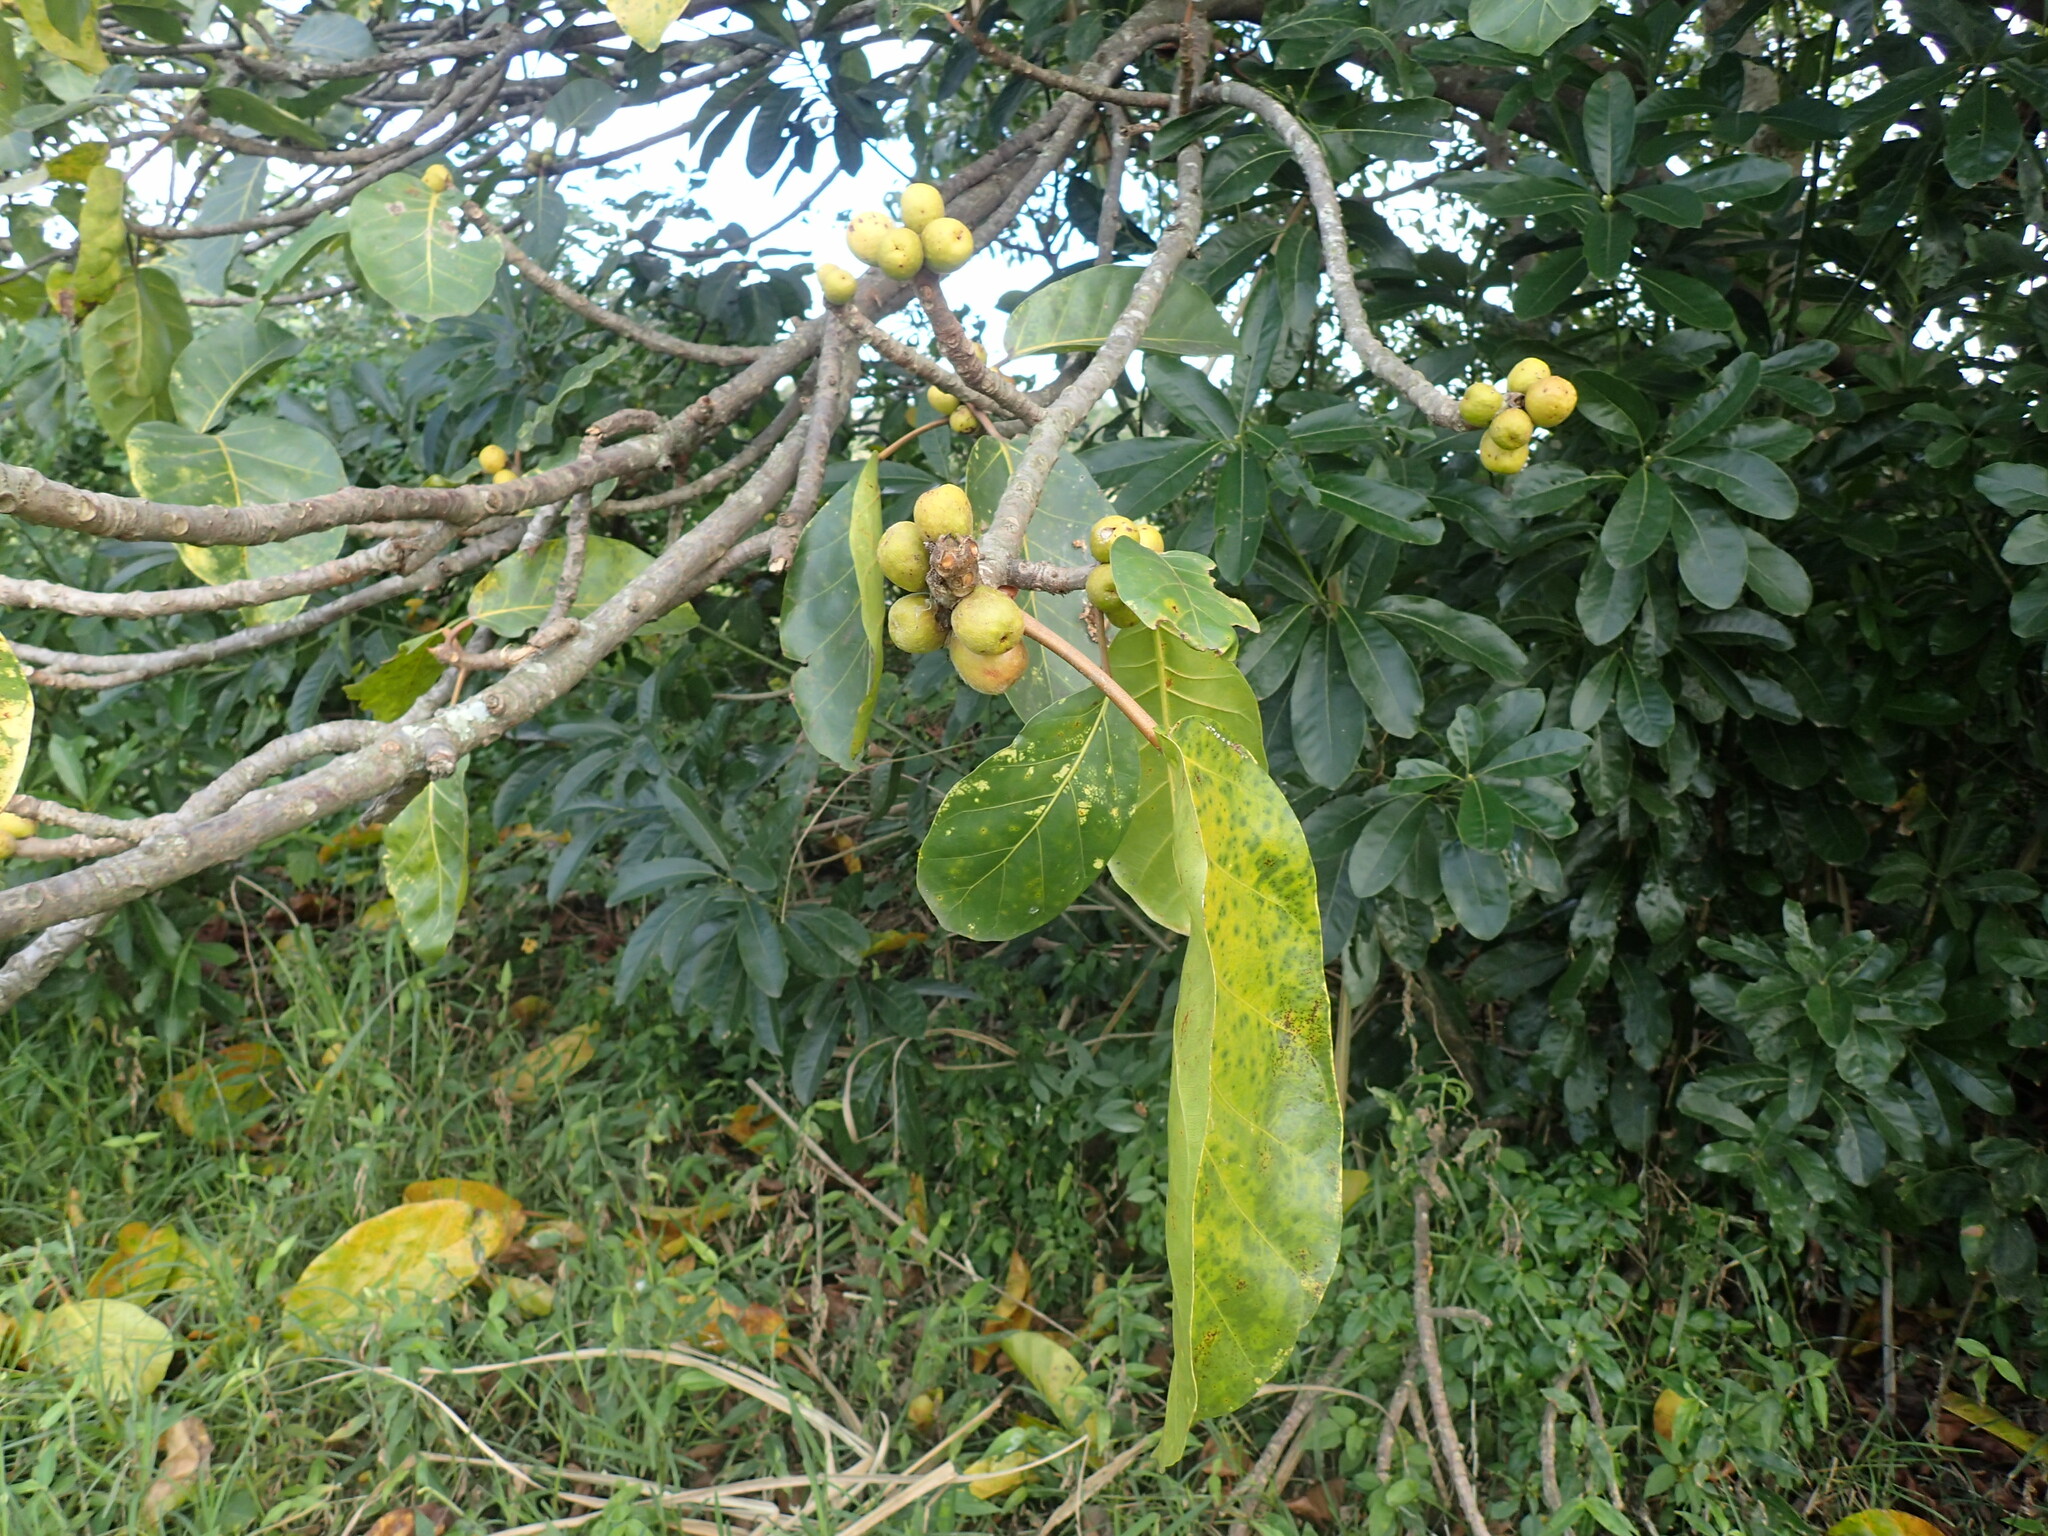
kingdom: Plantae
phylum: Tracheophyta
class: Magnoliopsida
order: Rosales
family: Moraceae
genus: Ficus
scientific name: Ficus lutea
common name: Giant-leaved fig
